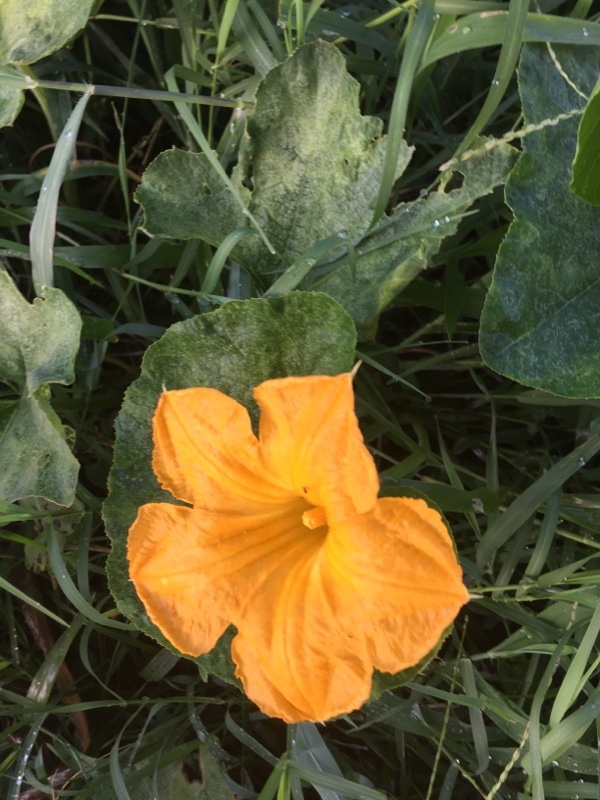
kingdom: Plantae
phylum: Tracheophyta
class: Magnoliopsida
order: Cucurbitales
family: Cucurbitaceae
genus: Cucurbita
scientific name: Cucurbita pepo
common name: Marrow
